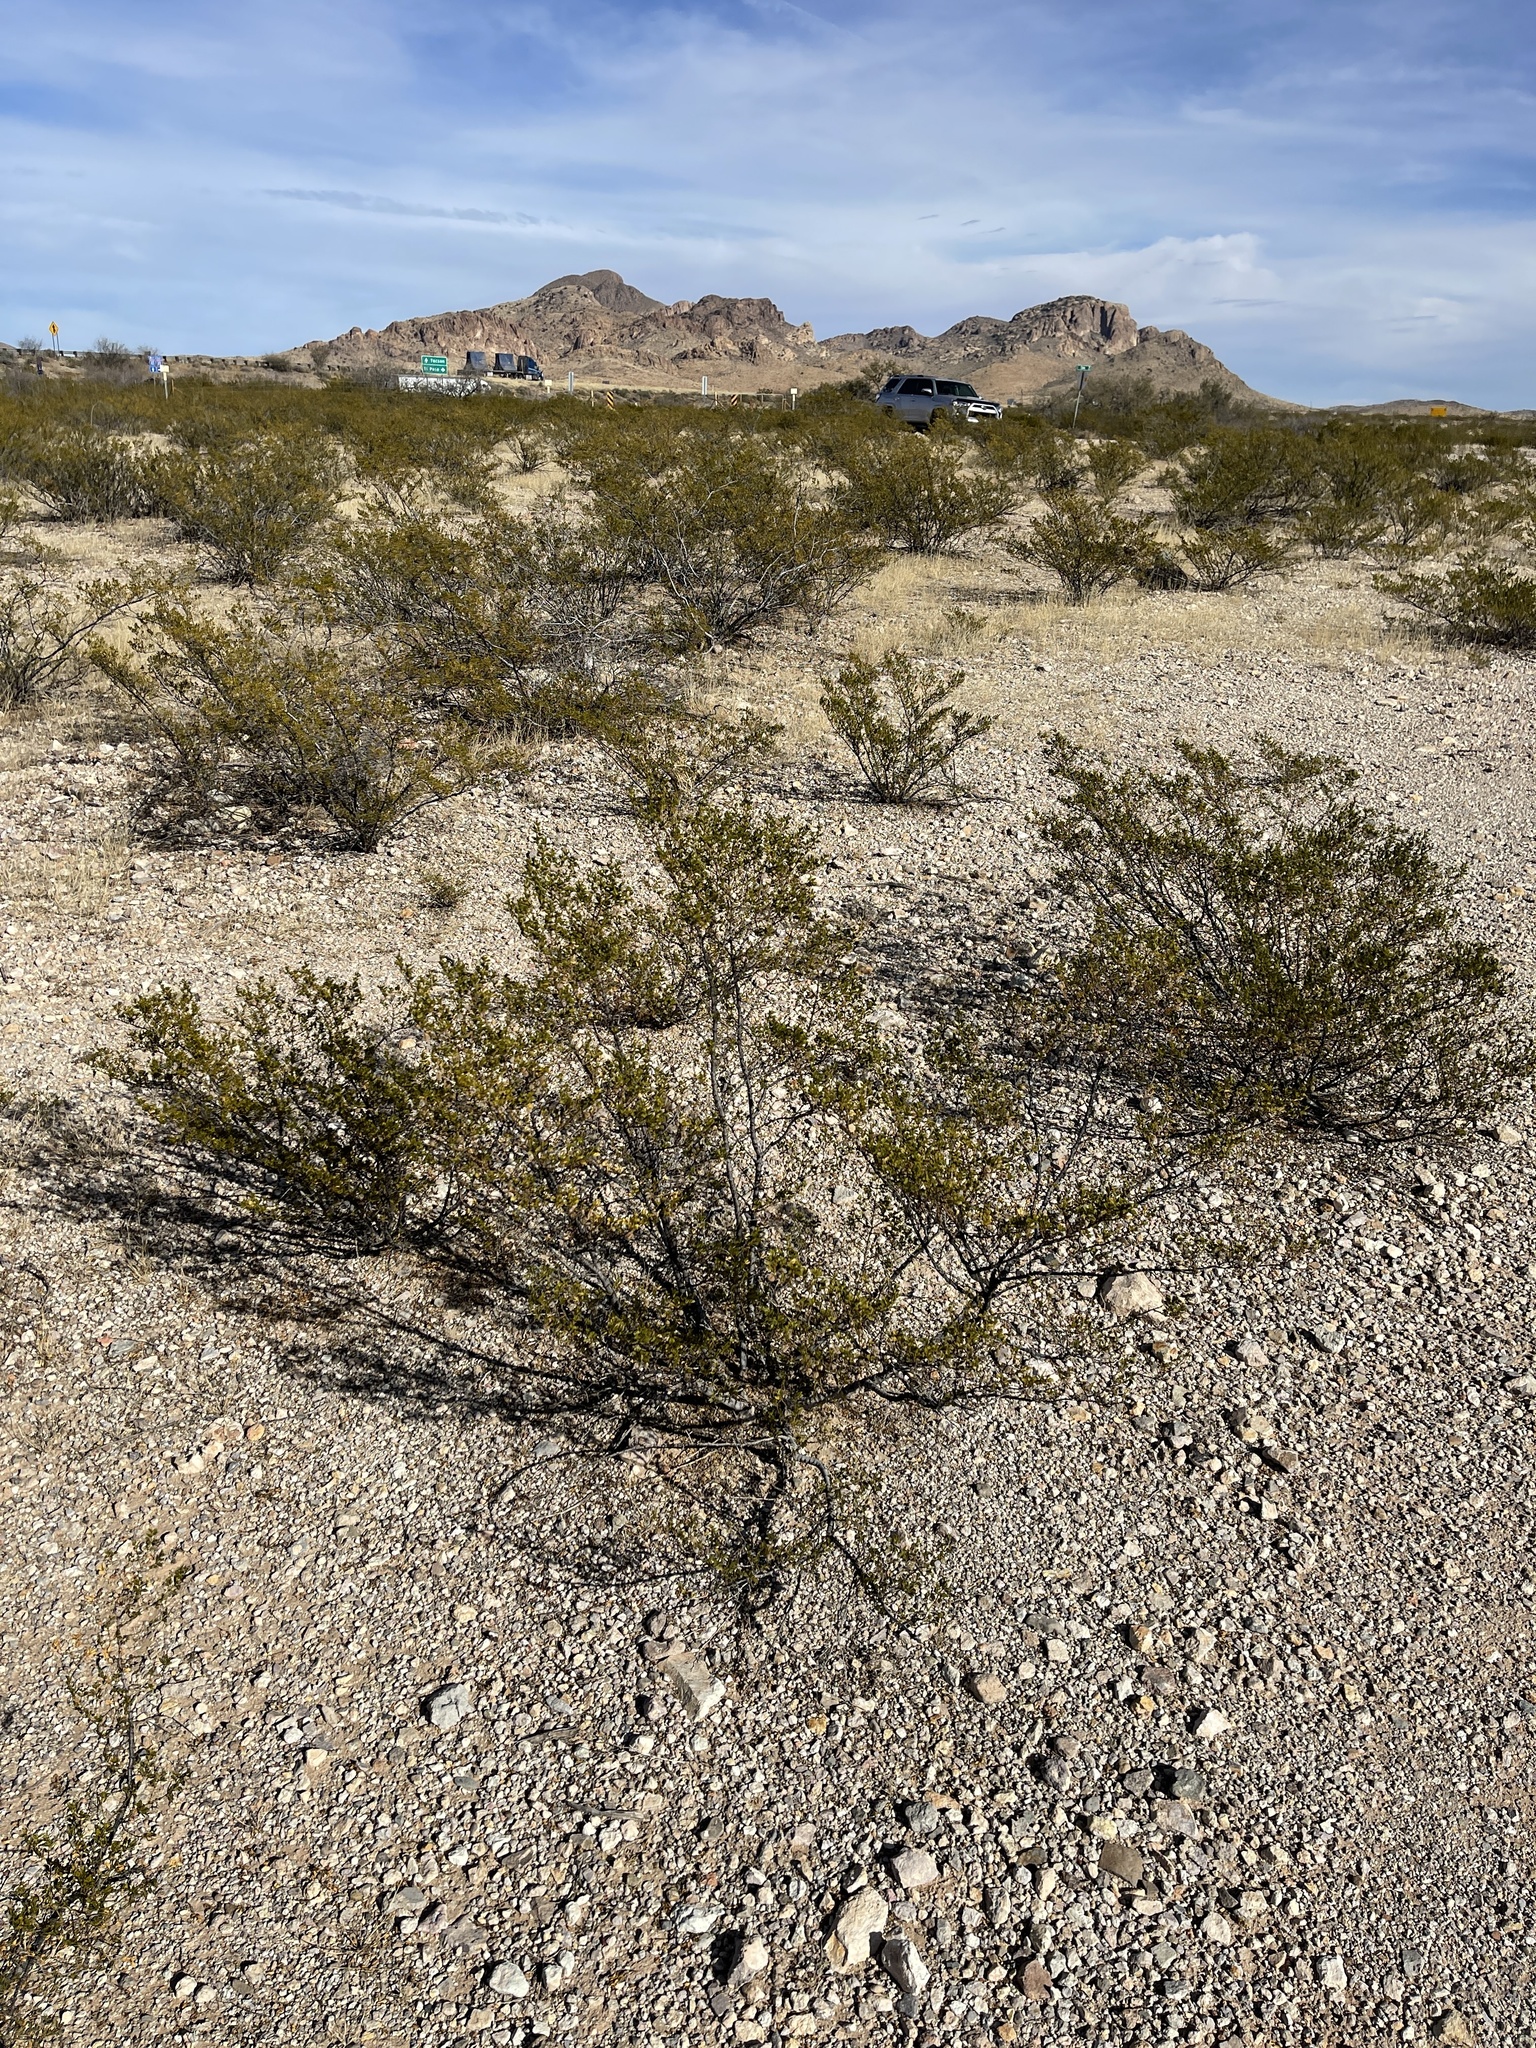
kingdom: Plantae
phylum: Tracheophyta
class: Magnoliopsida
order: Zygophyllales
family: Zygophyllaceae
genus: Larrea
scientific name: Larrea tridentata
